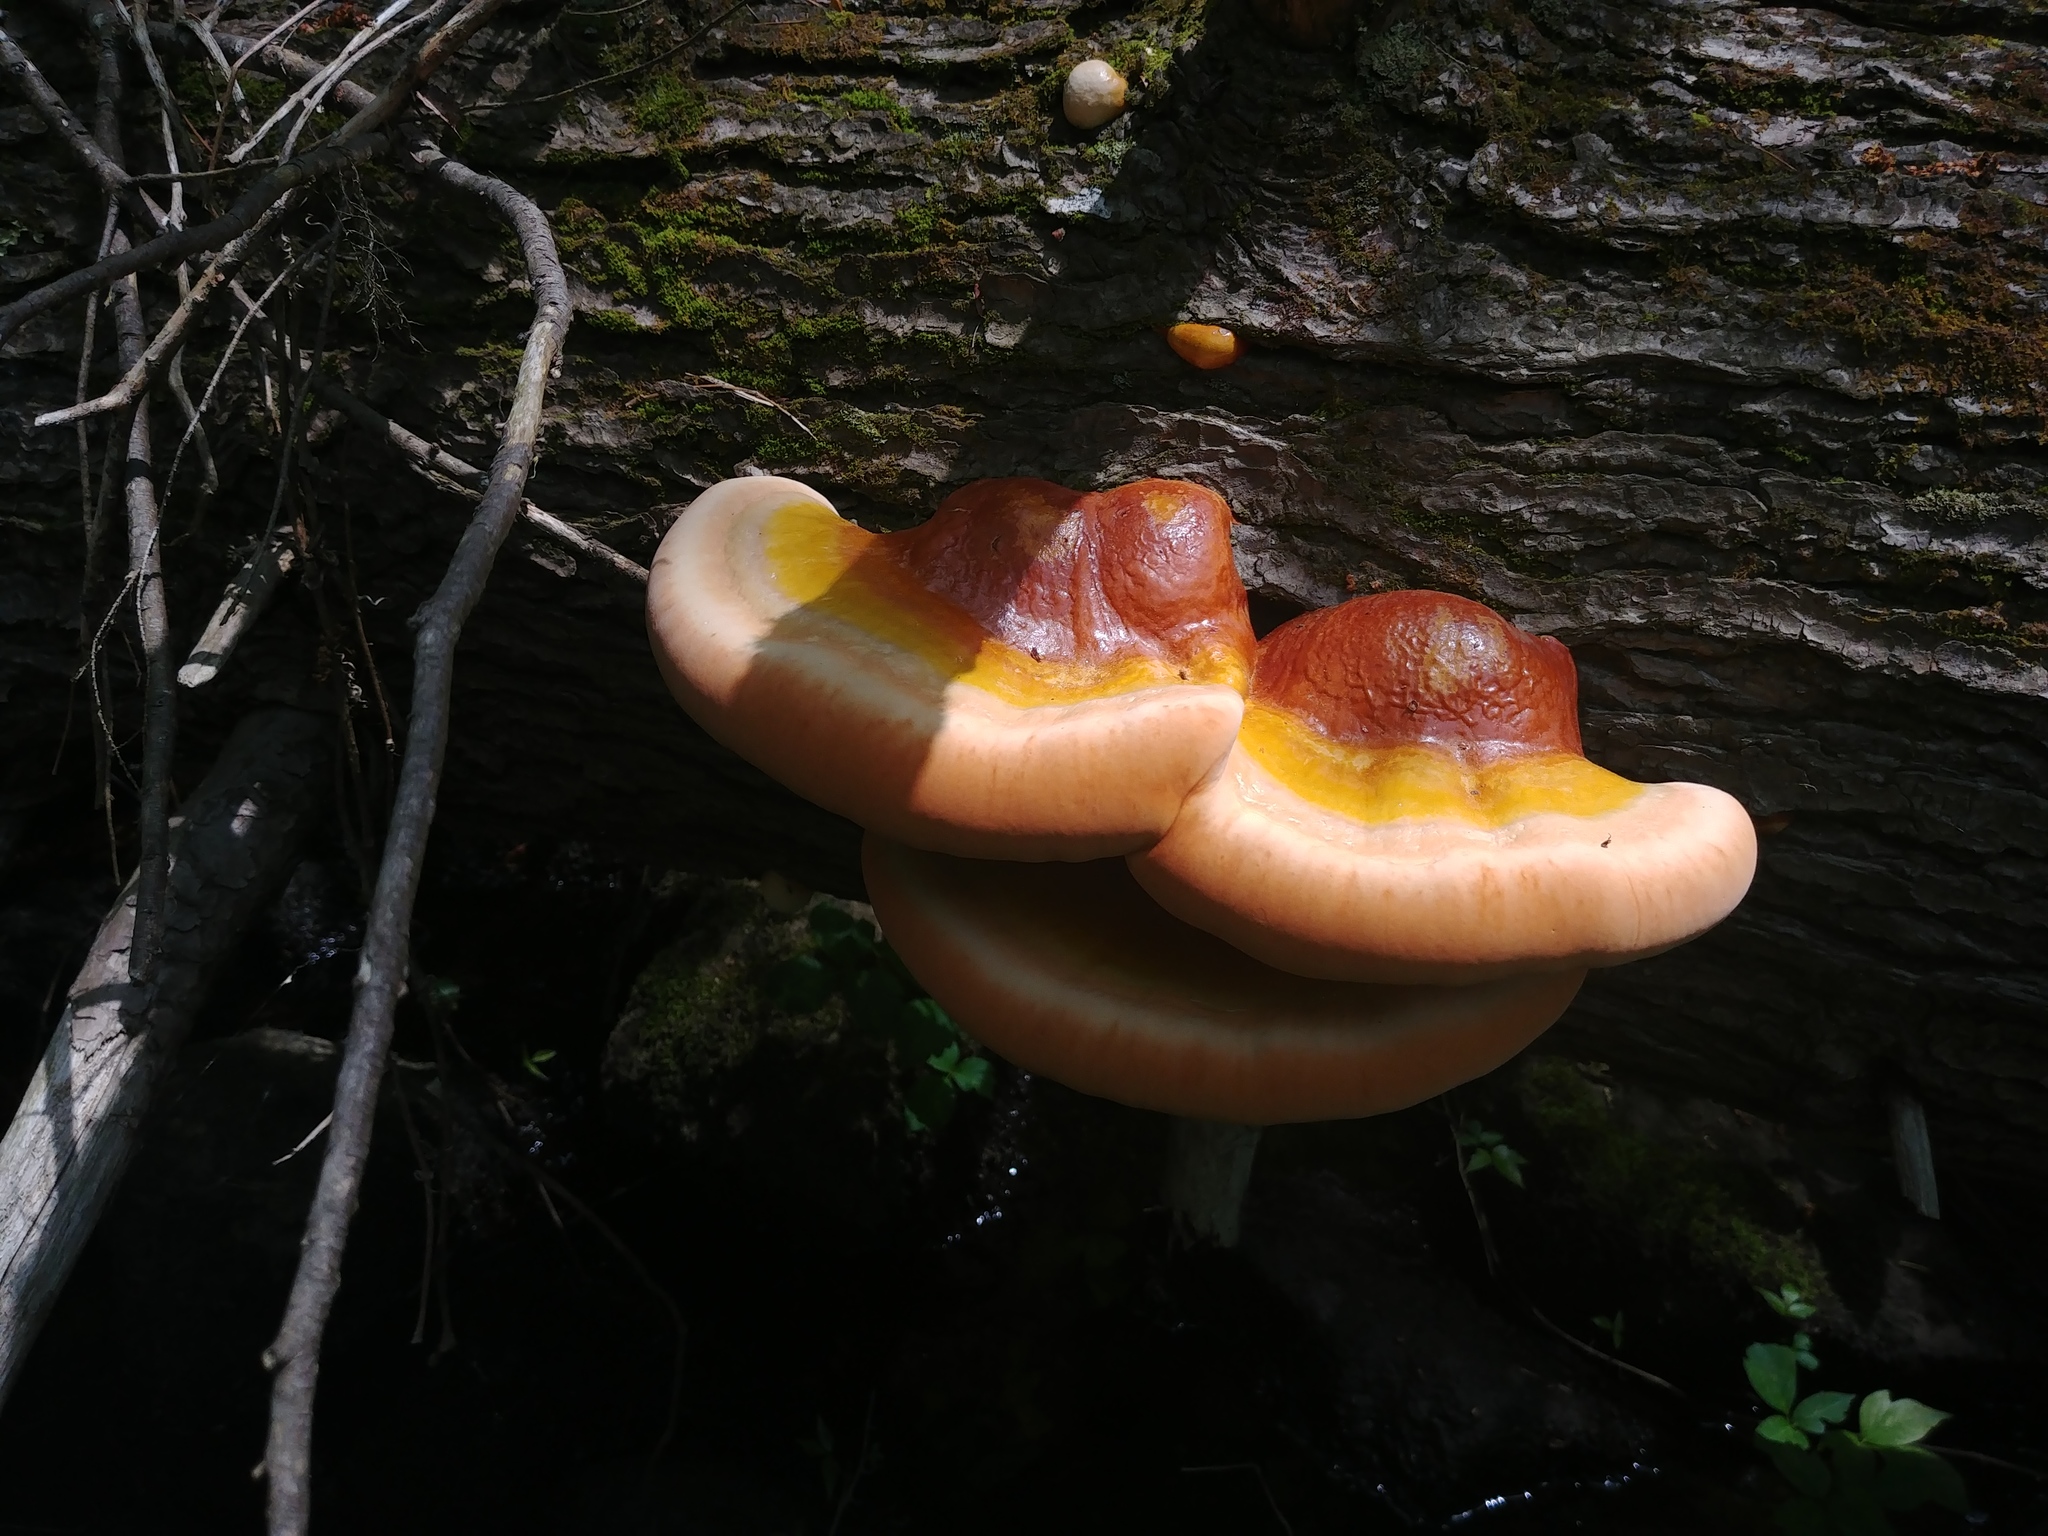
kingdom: Fungi
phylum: Basidiomycota
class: Agaricomycetes
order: Polyporales
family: Polyporaceae
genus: Ganoderma
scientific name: Ganoderma tsugae
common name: Hemlock varnish shelf
